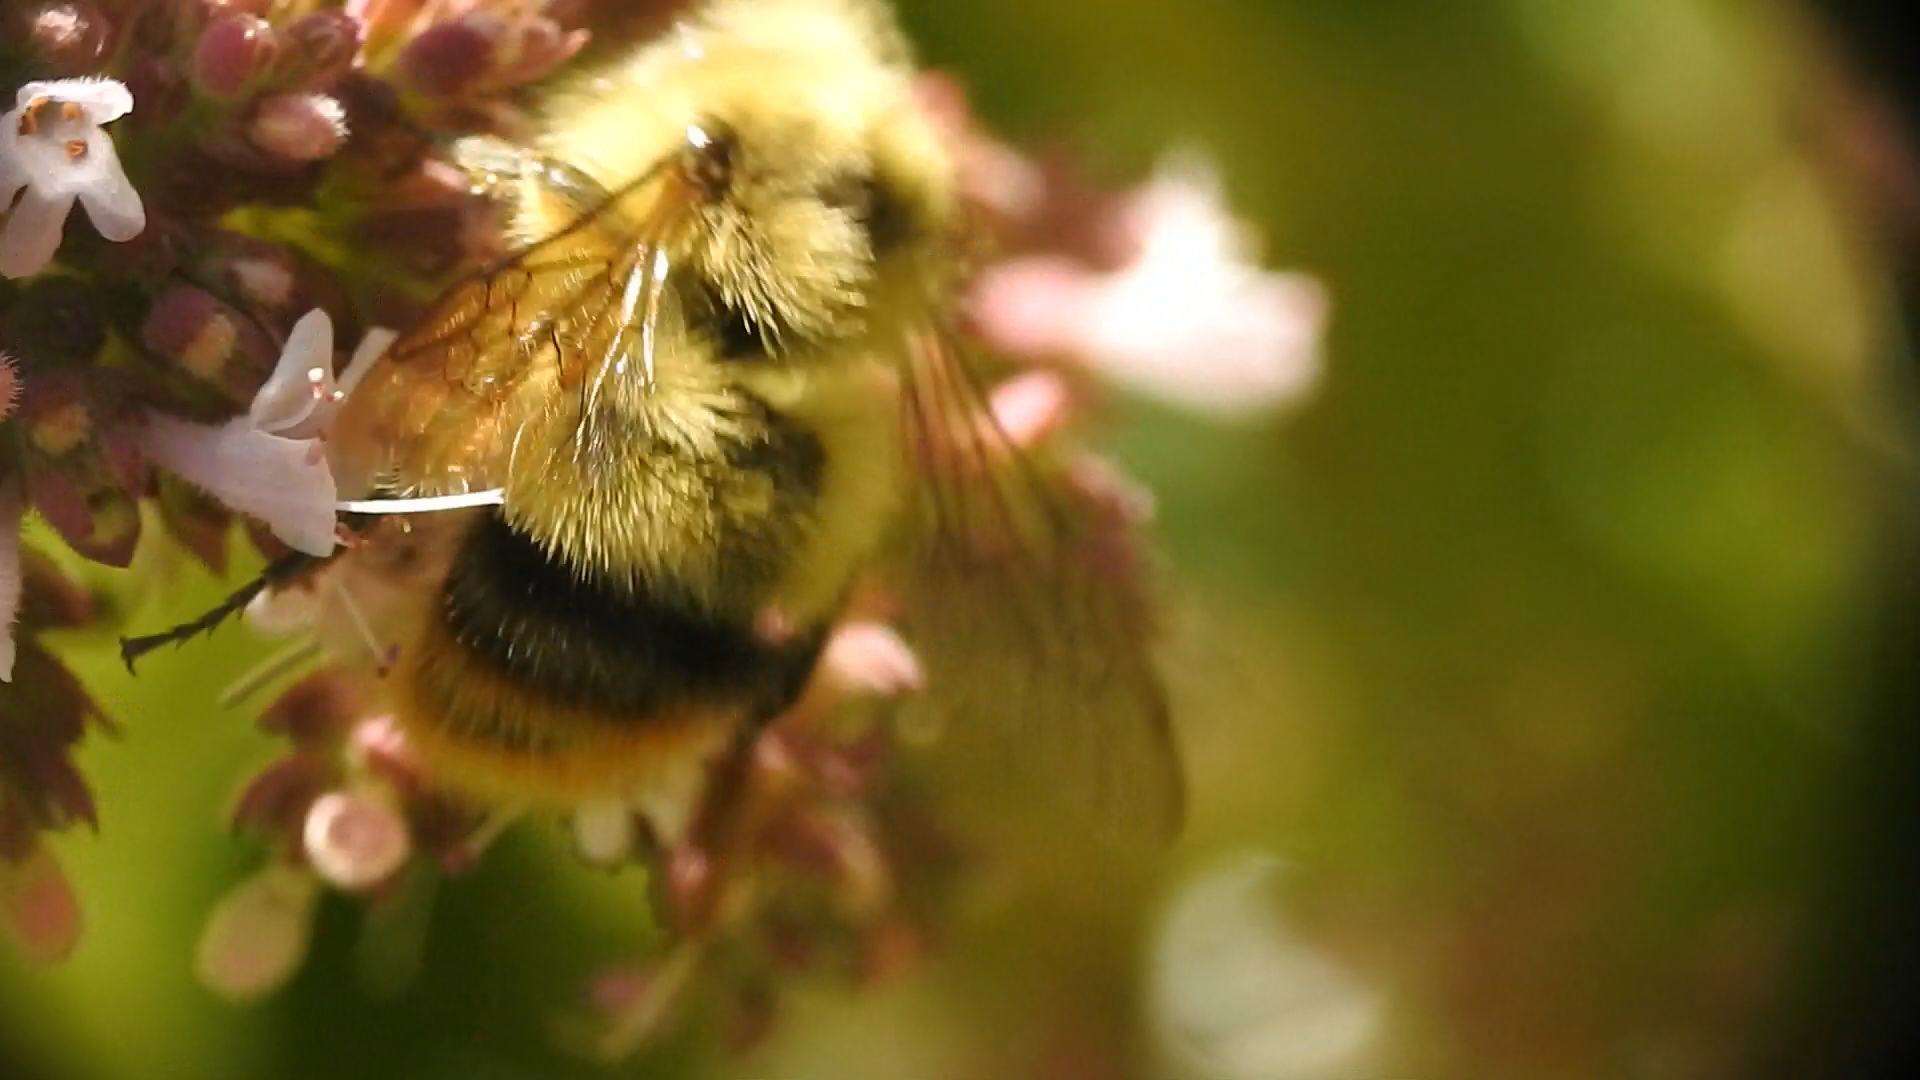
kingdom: Animalia
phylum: Arthropoda
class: Insecta
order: Hymenoptera
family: Apidae
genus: Bombus
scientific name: Bombus mixtus
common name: Fuzzy-horned bumble bee
